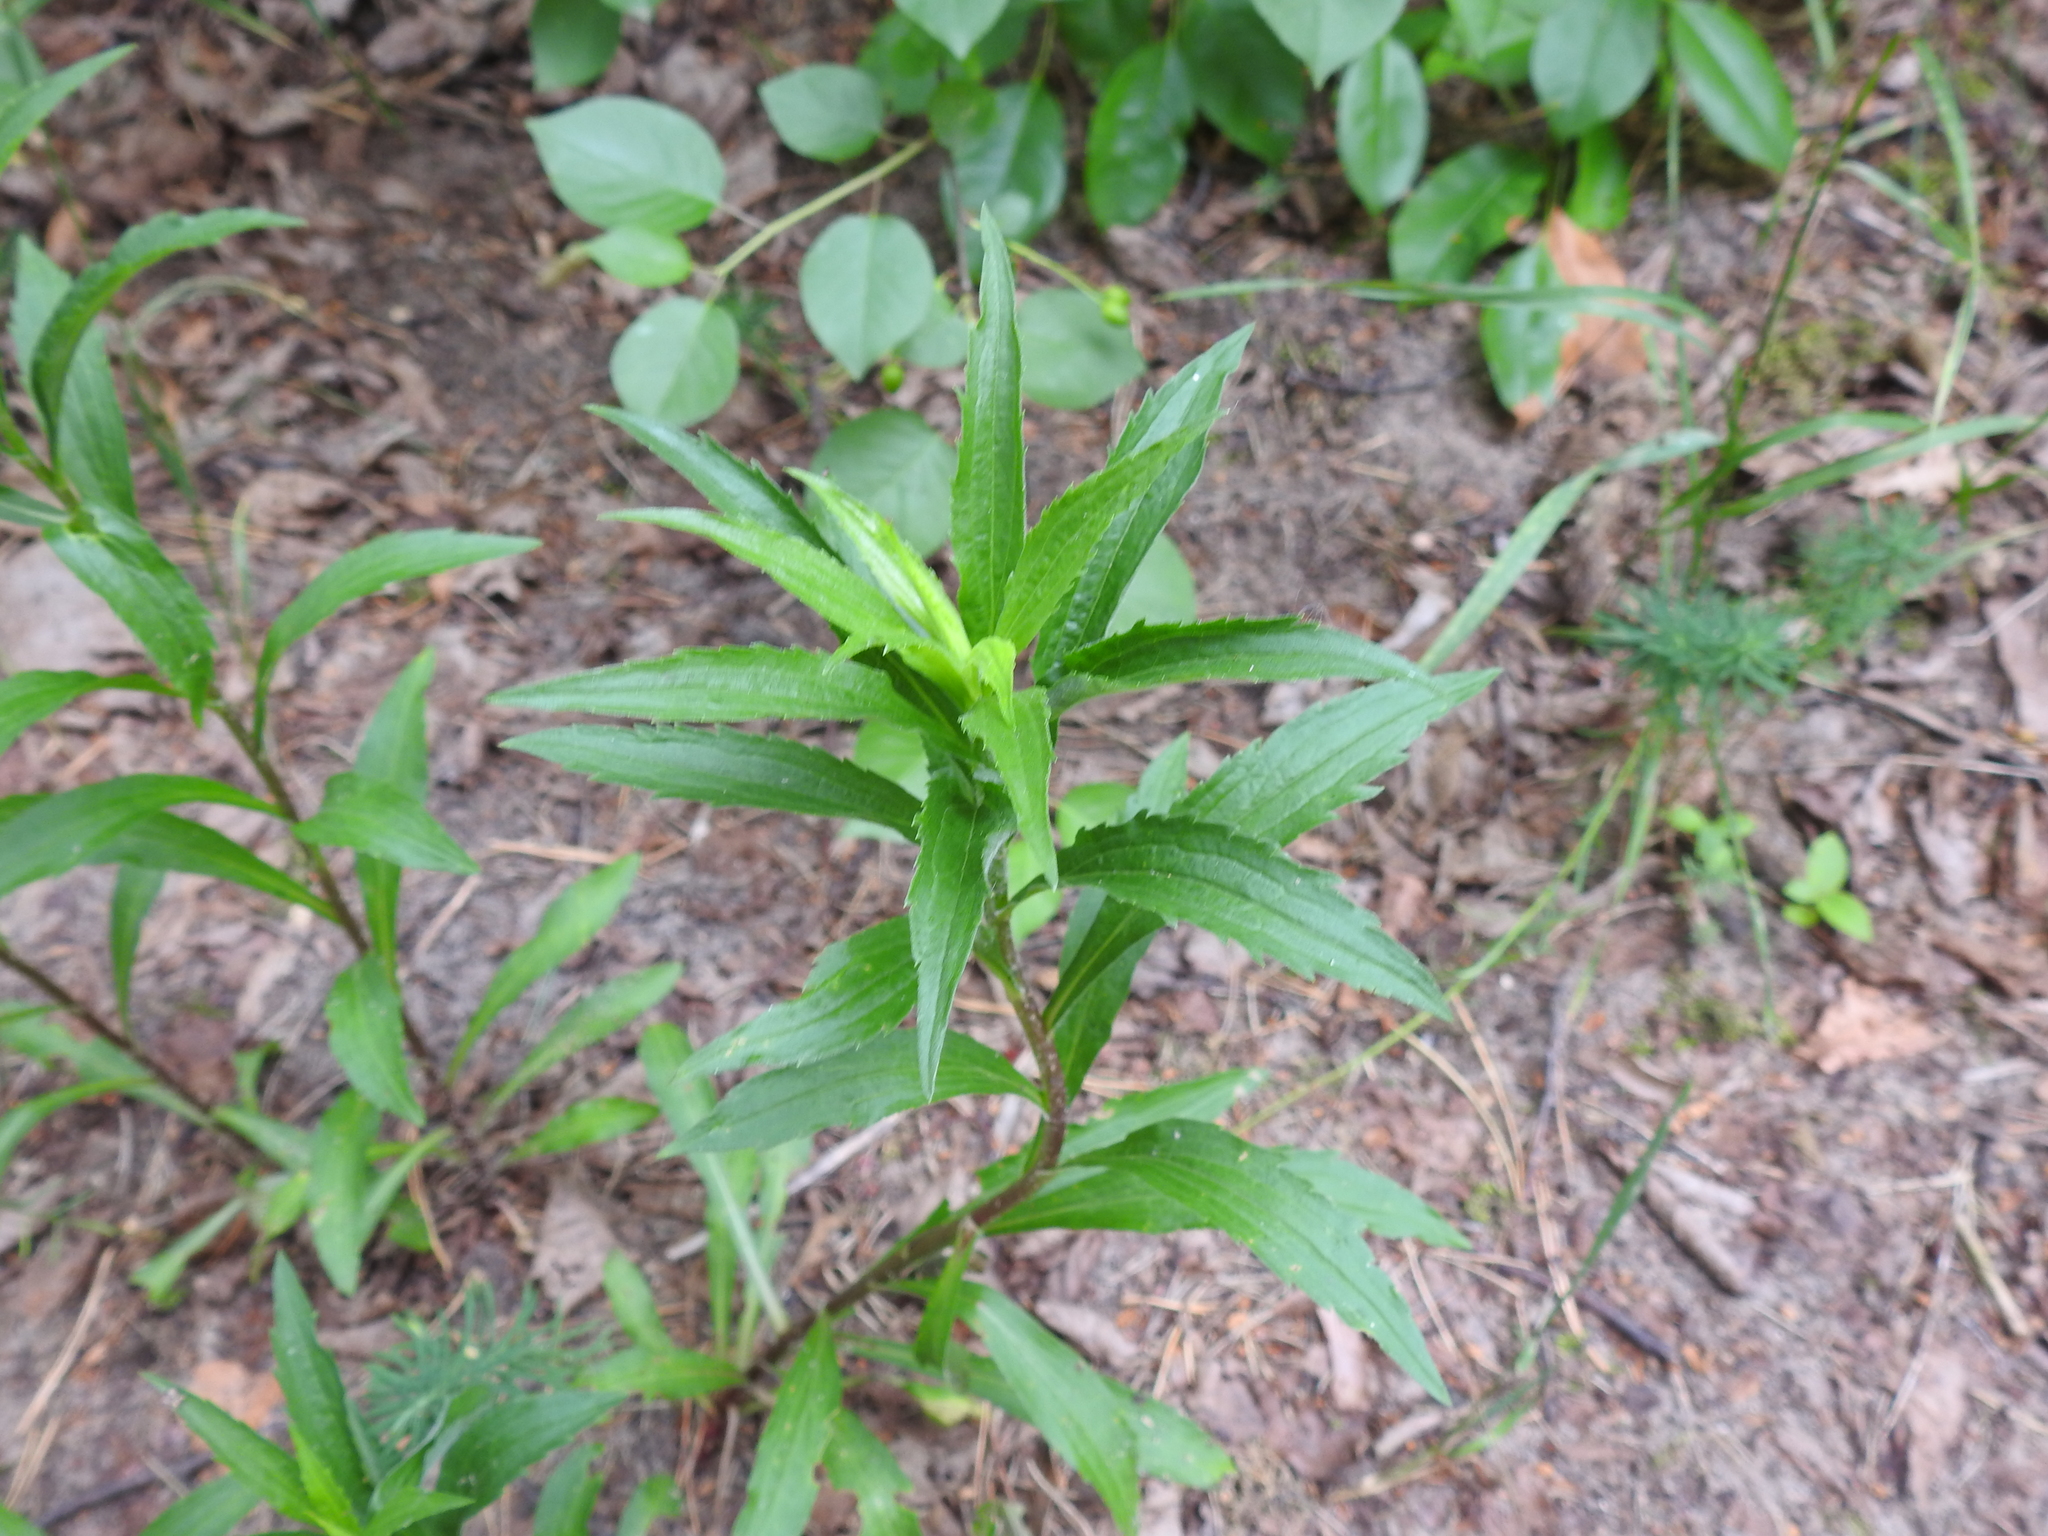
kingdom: Plantae
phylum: Tracheophyta
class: Magnoliopsida
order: Asterales
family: Asteraceae
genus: Solidago
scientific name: Solidago canadensis
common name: Canada goldenrod
